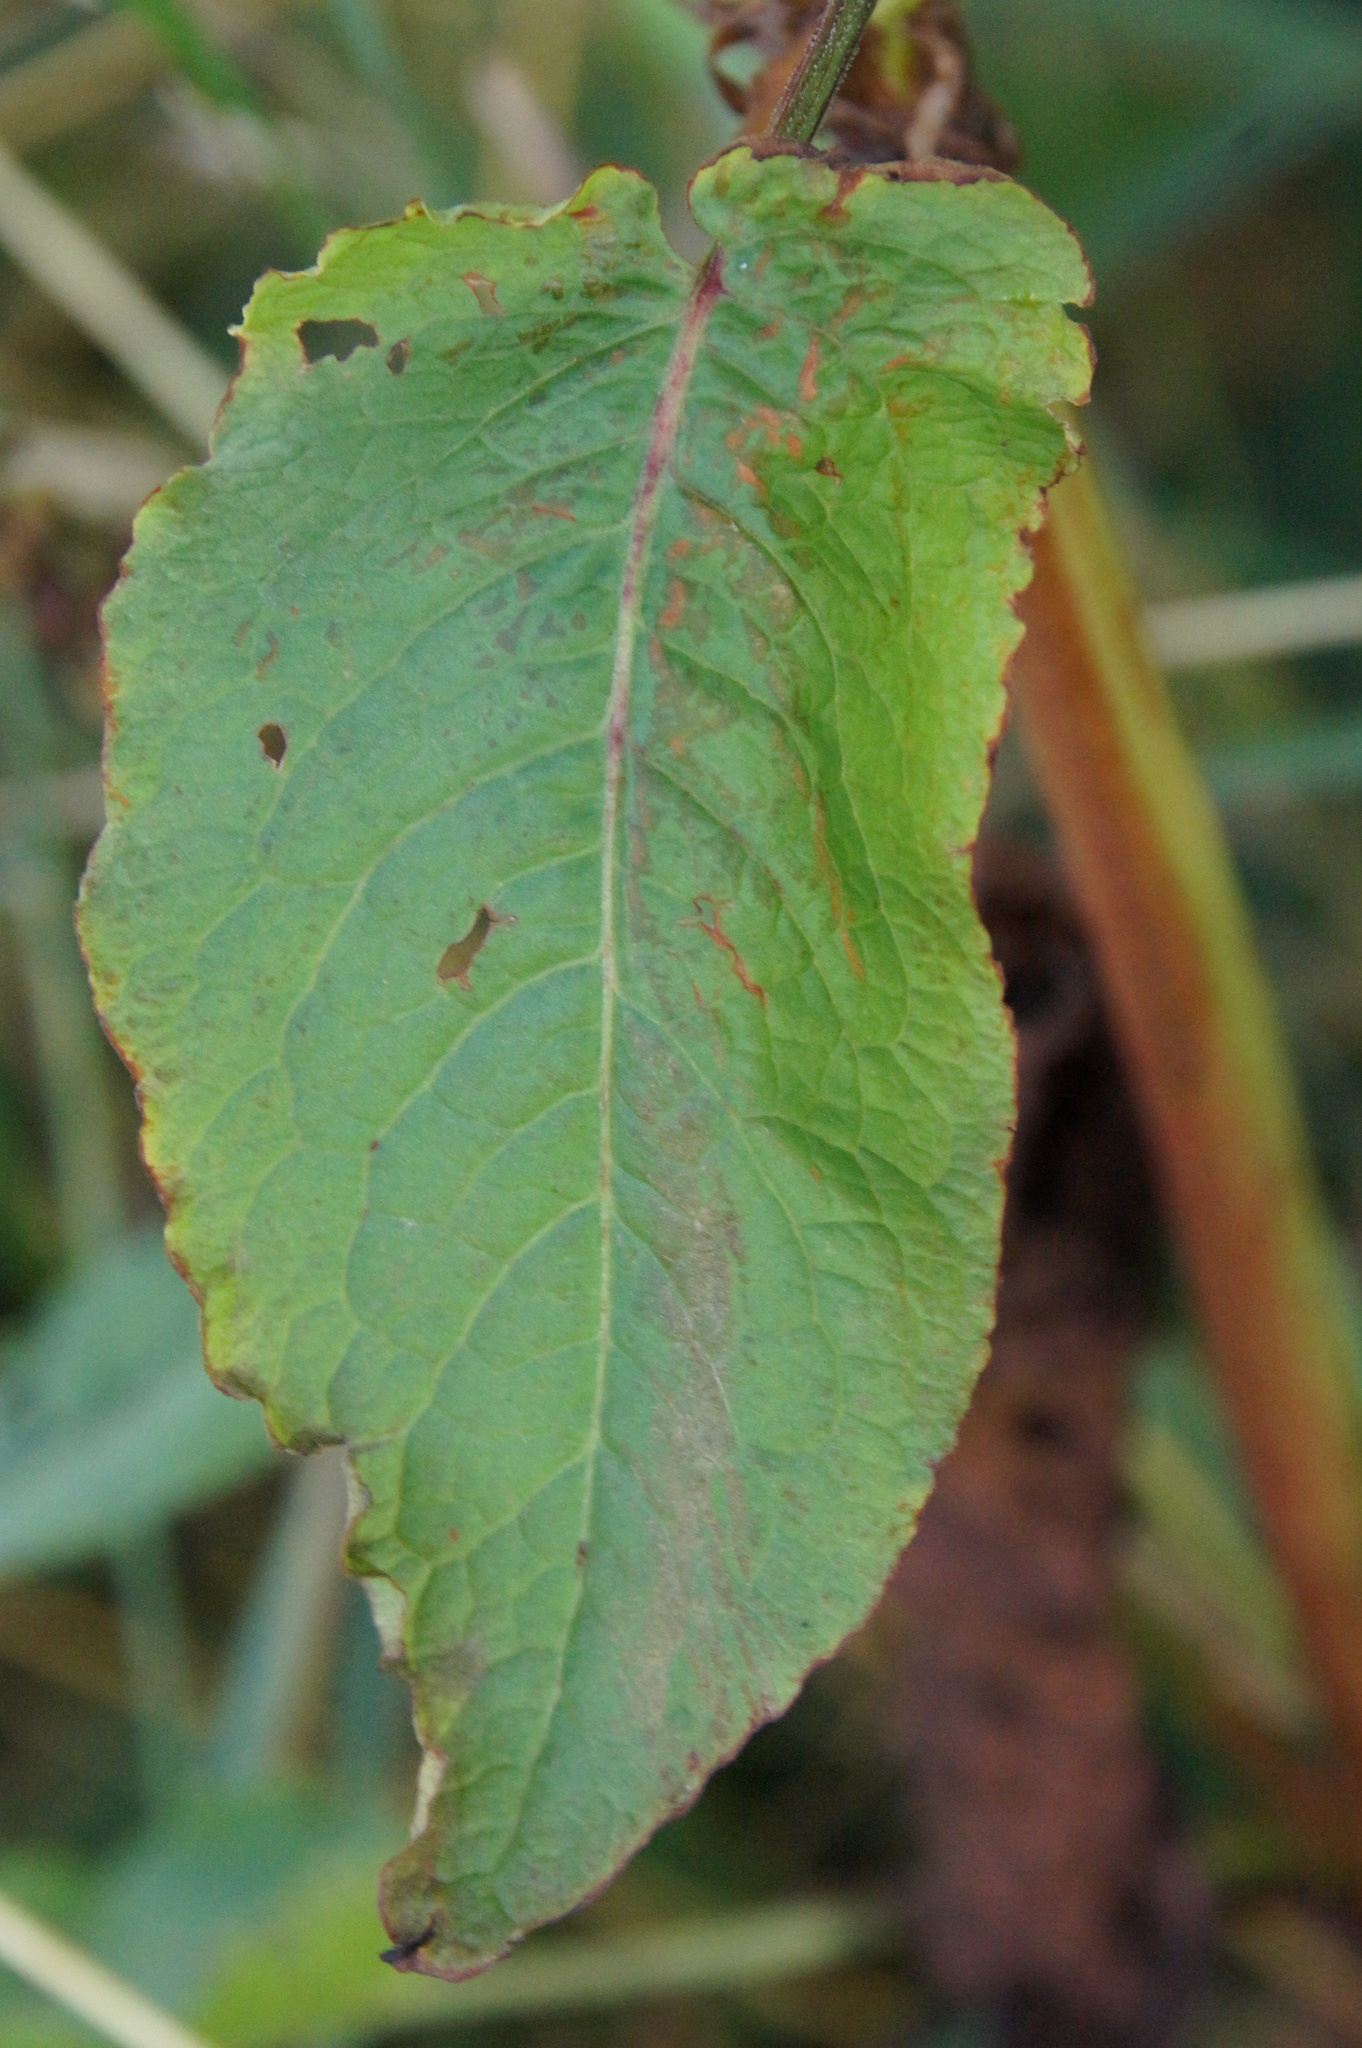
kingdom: Plantae
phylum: Tracheophyta
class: Magnoliopsida
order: Caryophyllales
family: Polygonaceae
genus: Rumex
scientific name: Rumex obtusifolius
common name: Bitter dock
